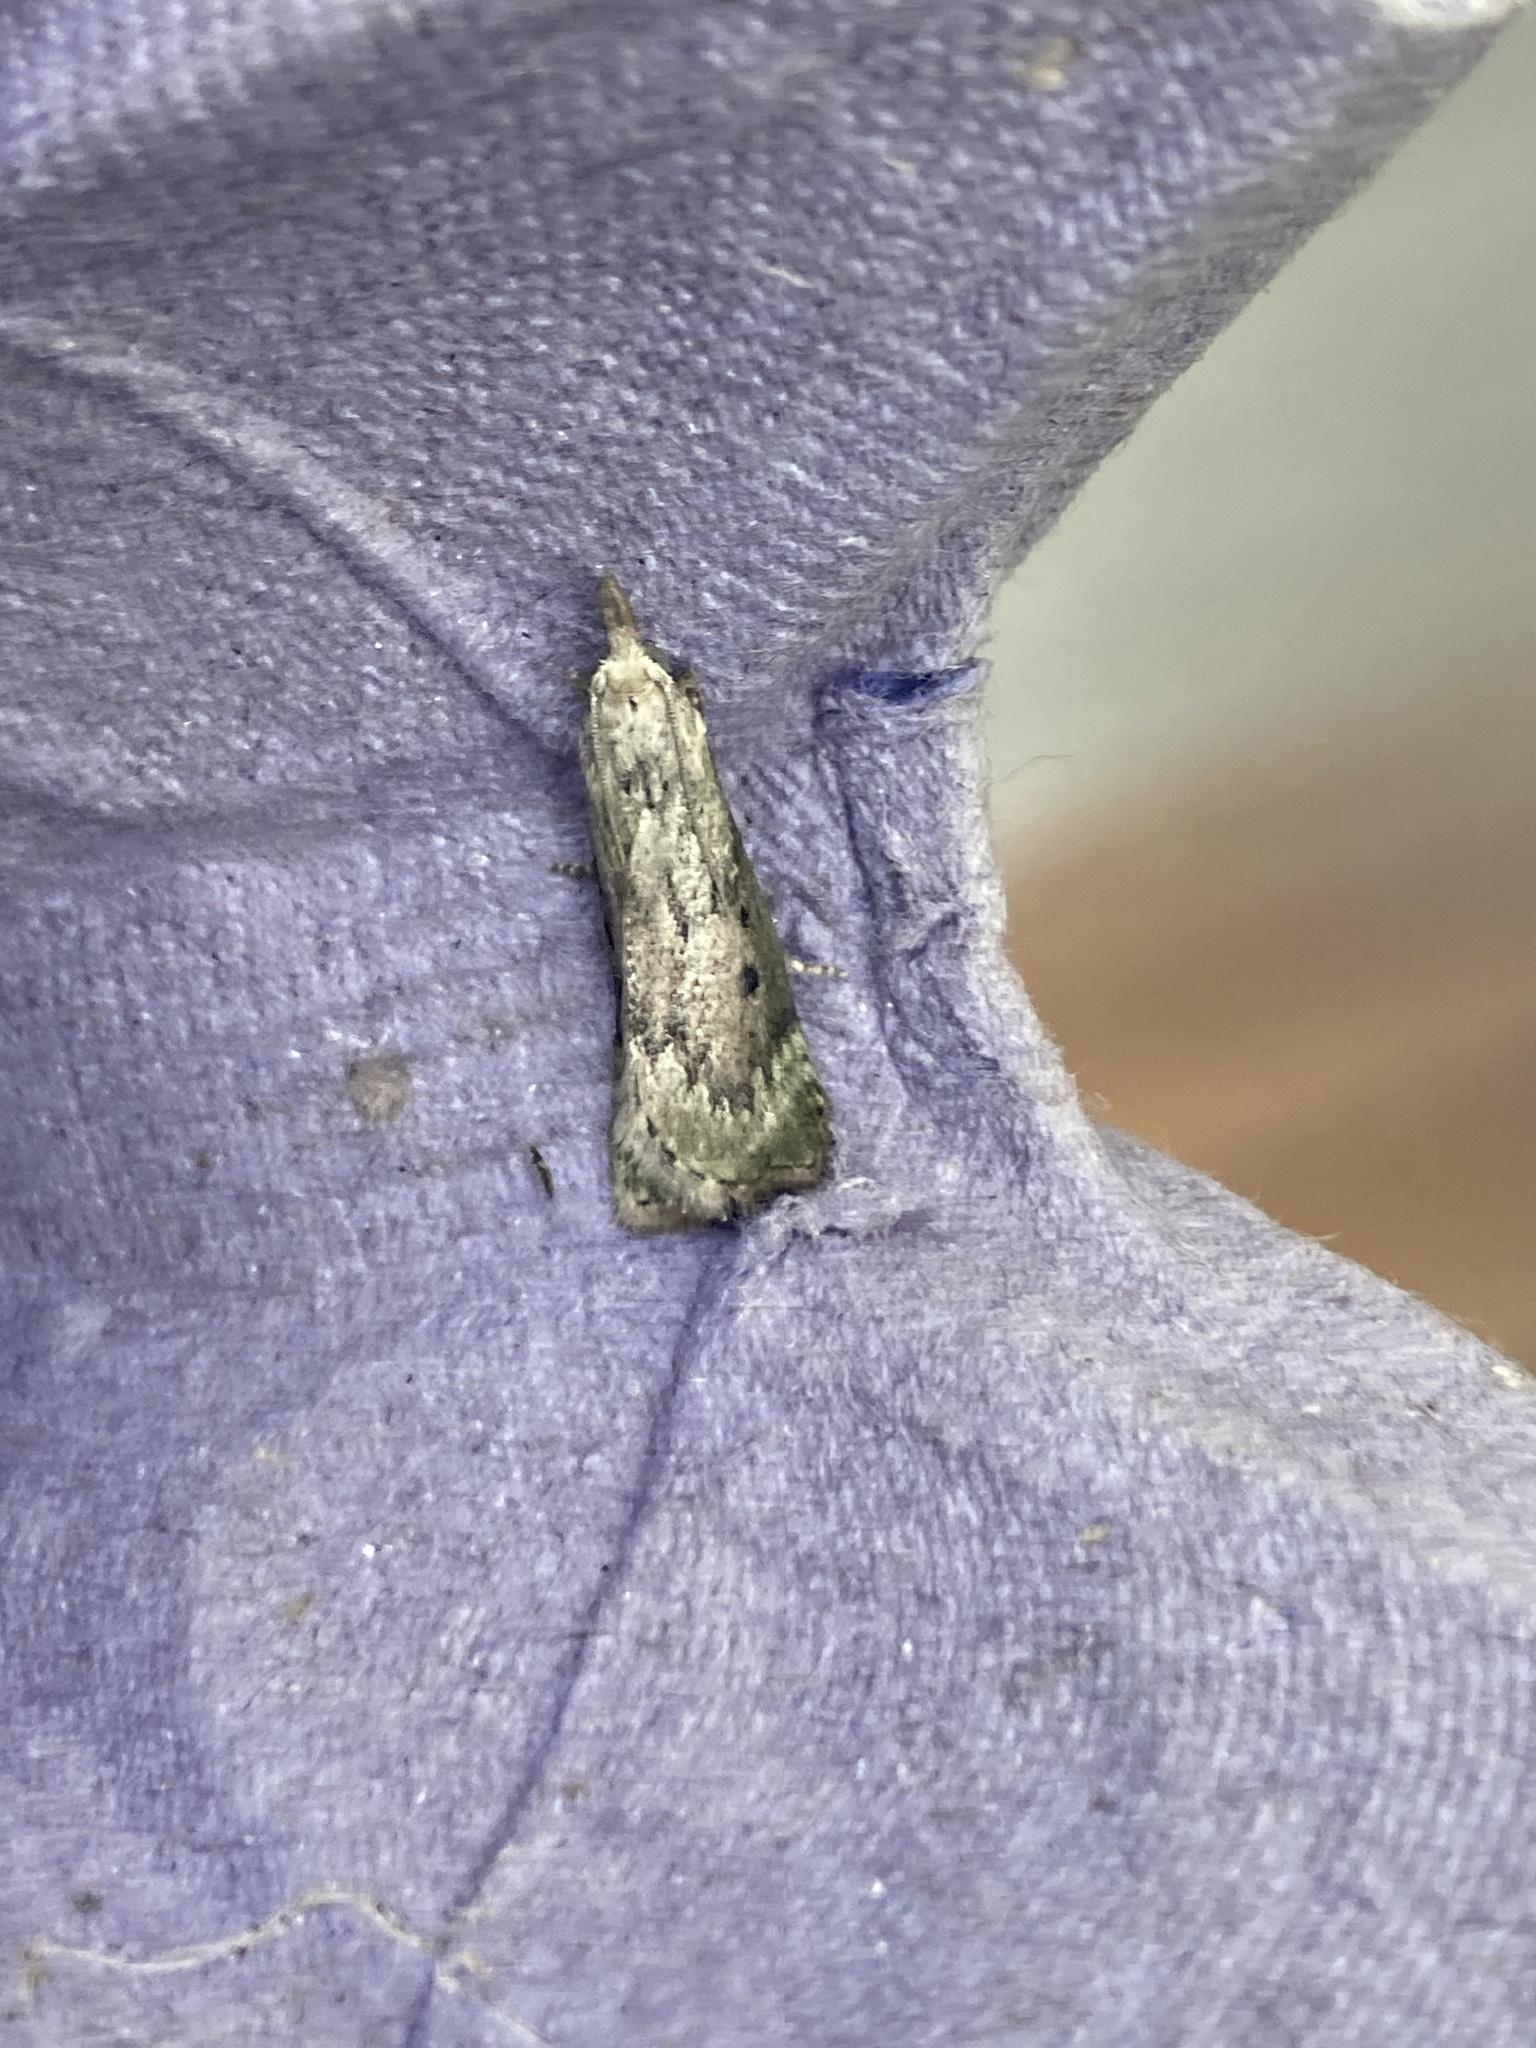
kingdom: Animalia
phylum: Arthropoda
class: Insecta
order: Lepidoptera
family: Pyralidae
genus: Aphomia
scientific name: Aphomia sociella
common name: Bee moth
